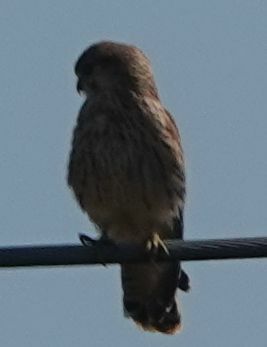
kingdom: Animalia
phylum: Chordata
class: Aves
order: Falconiformes
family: Falconidae
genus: Falco
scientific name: Falco tinnunculus
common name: Common kestrel
